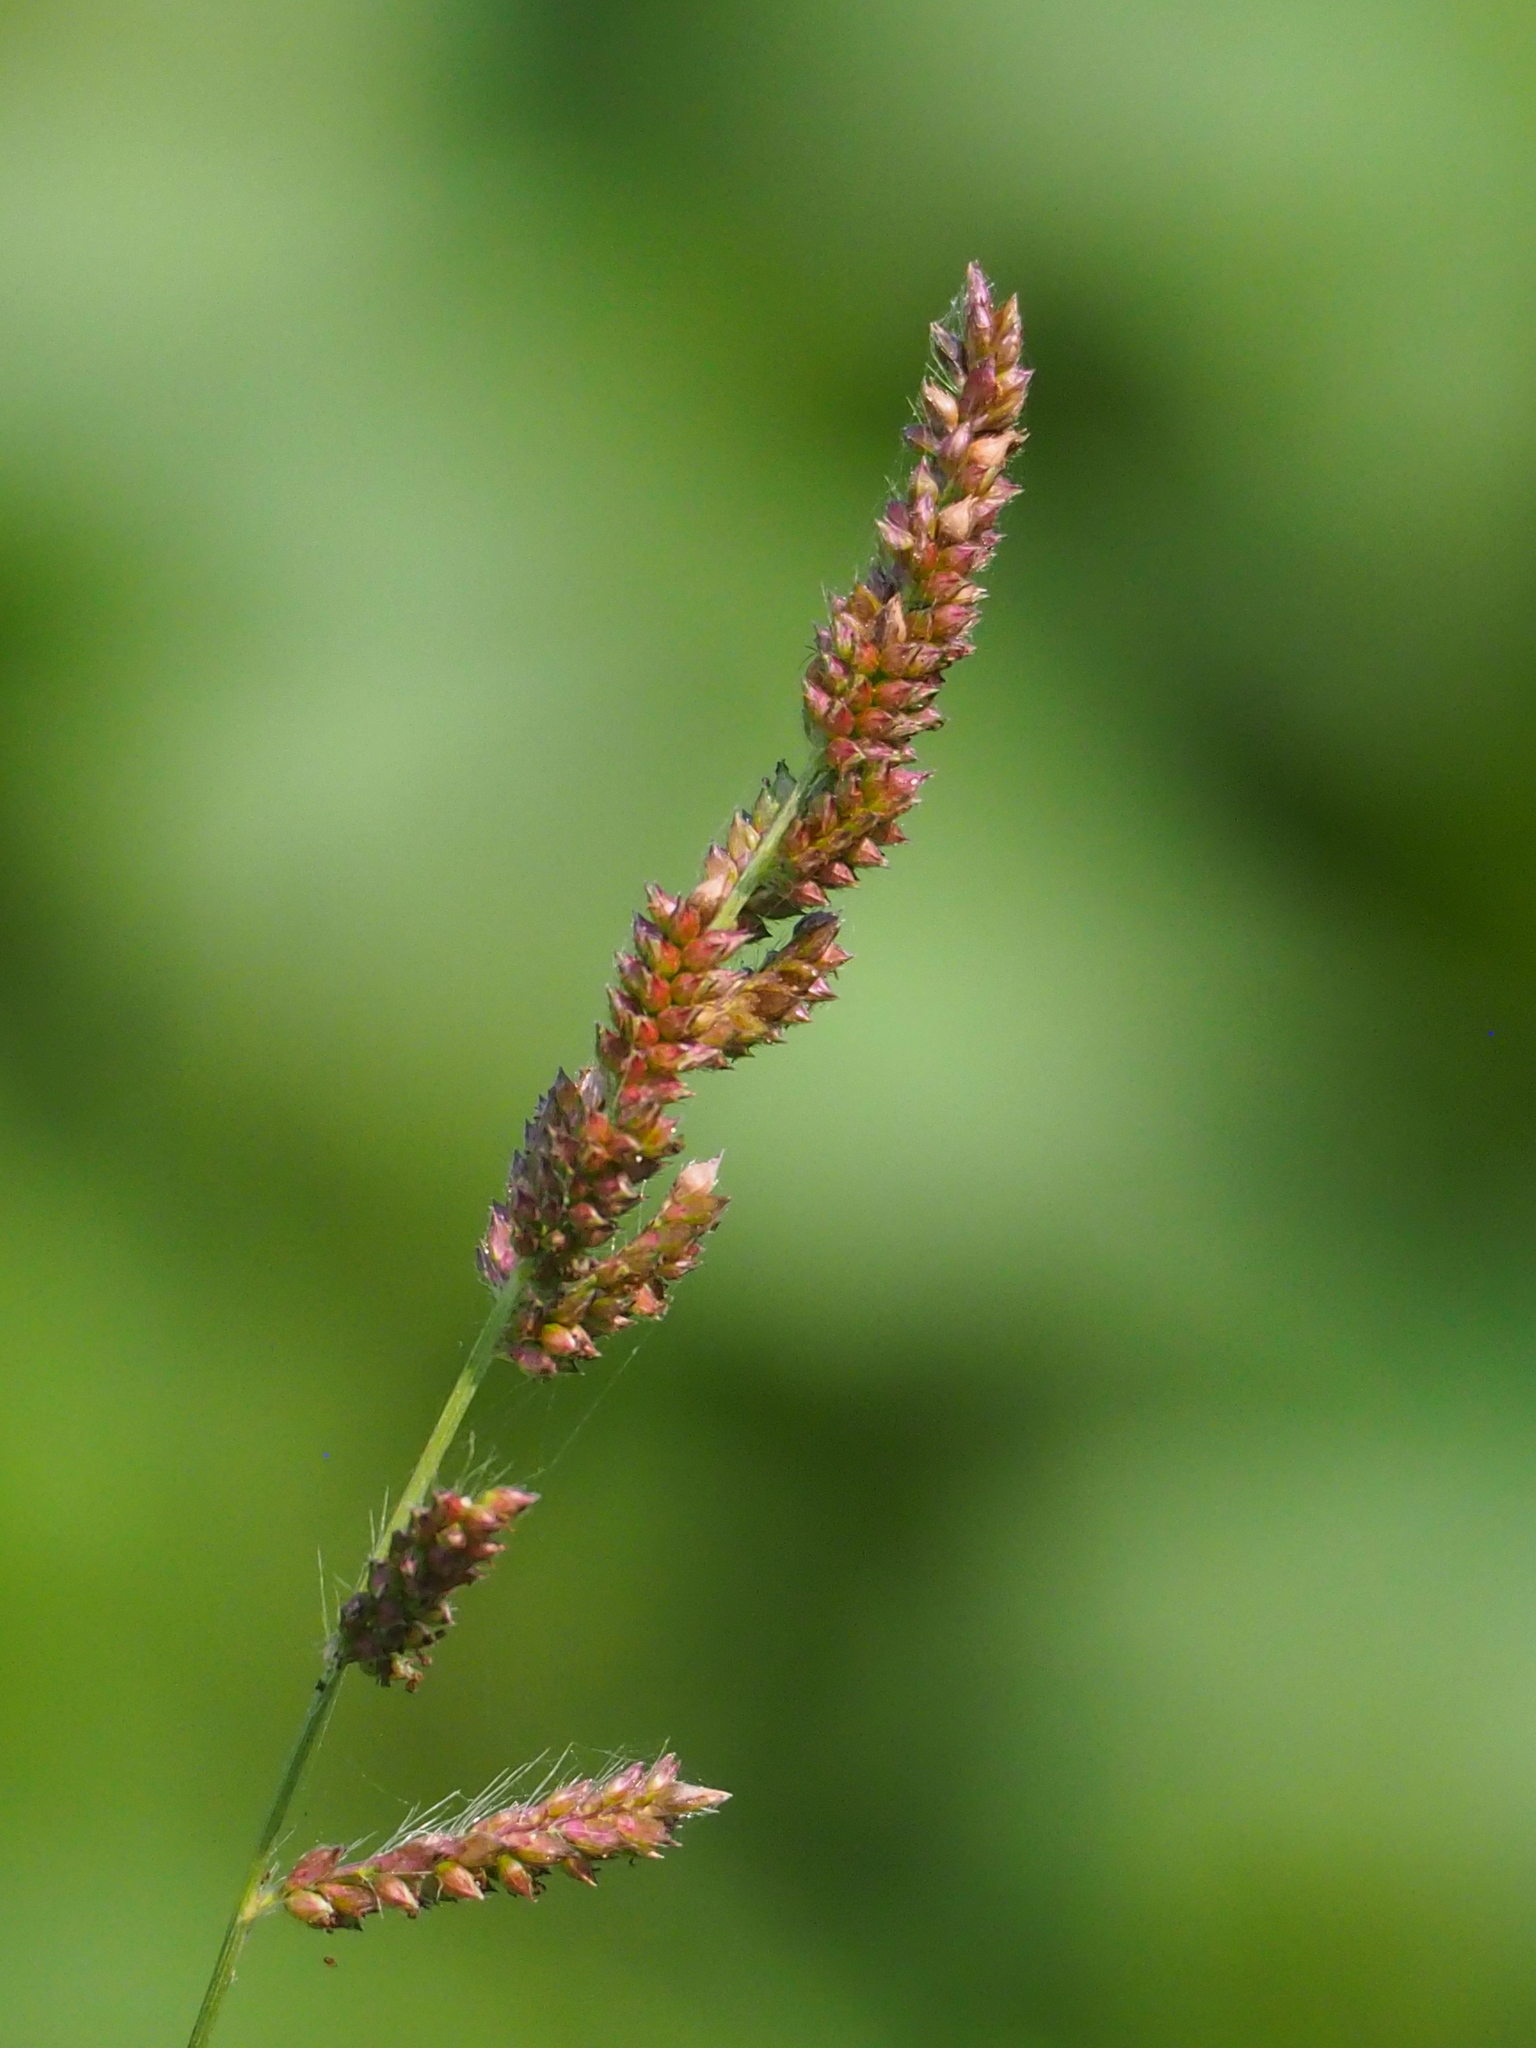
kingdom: Plantae
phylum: Tracheophyta
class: Liliopsida
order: Poales
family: Poaceae
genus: Echinochloa
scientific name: Echinochloa colonum
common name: Jungle rice
